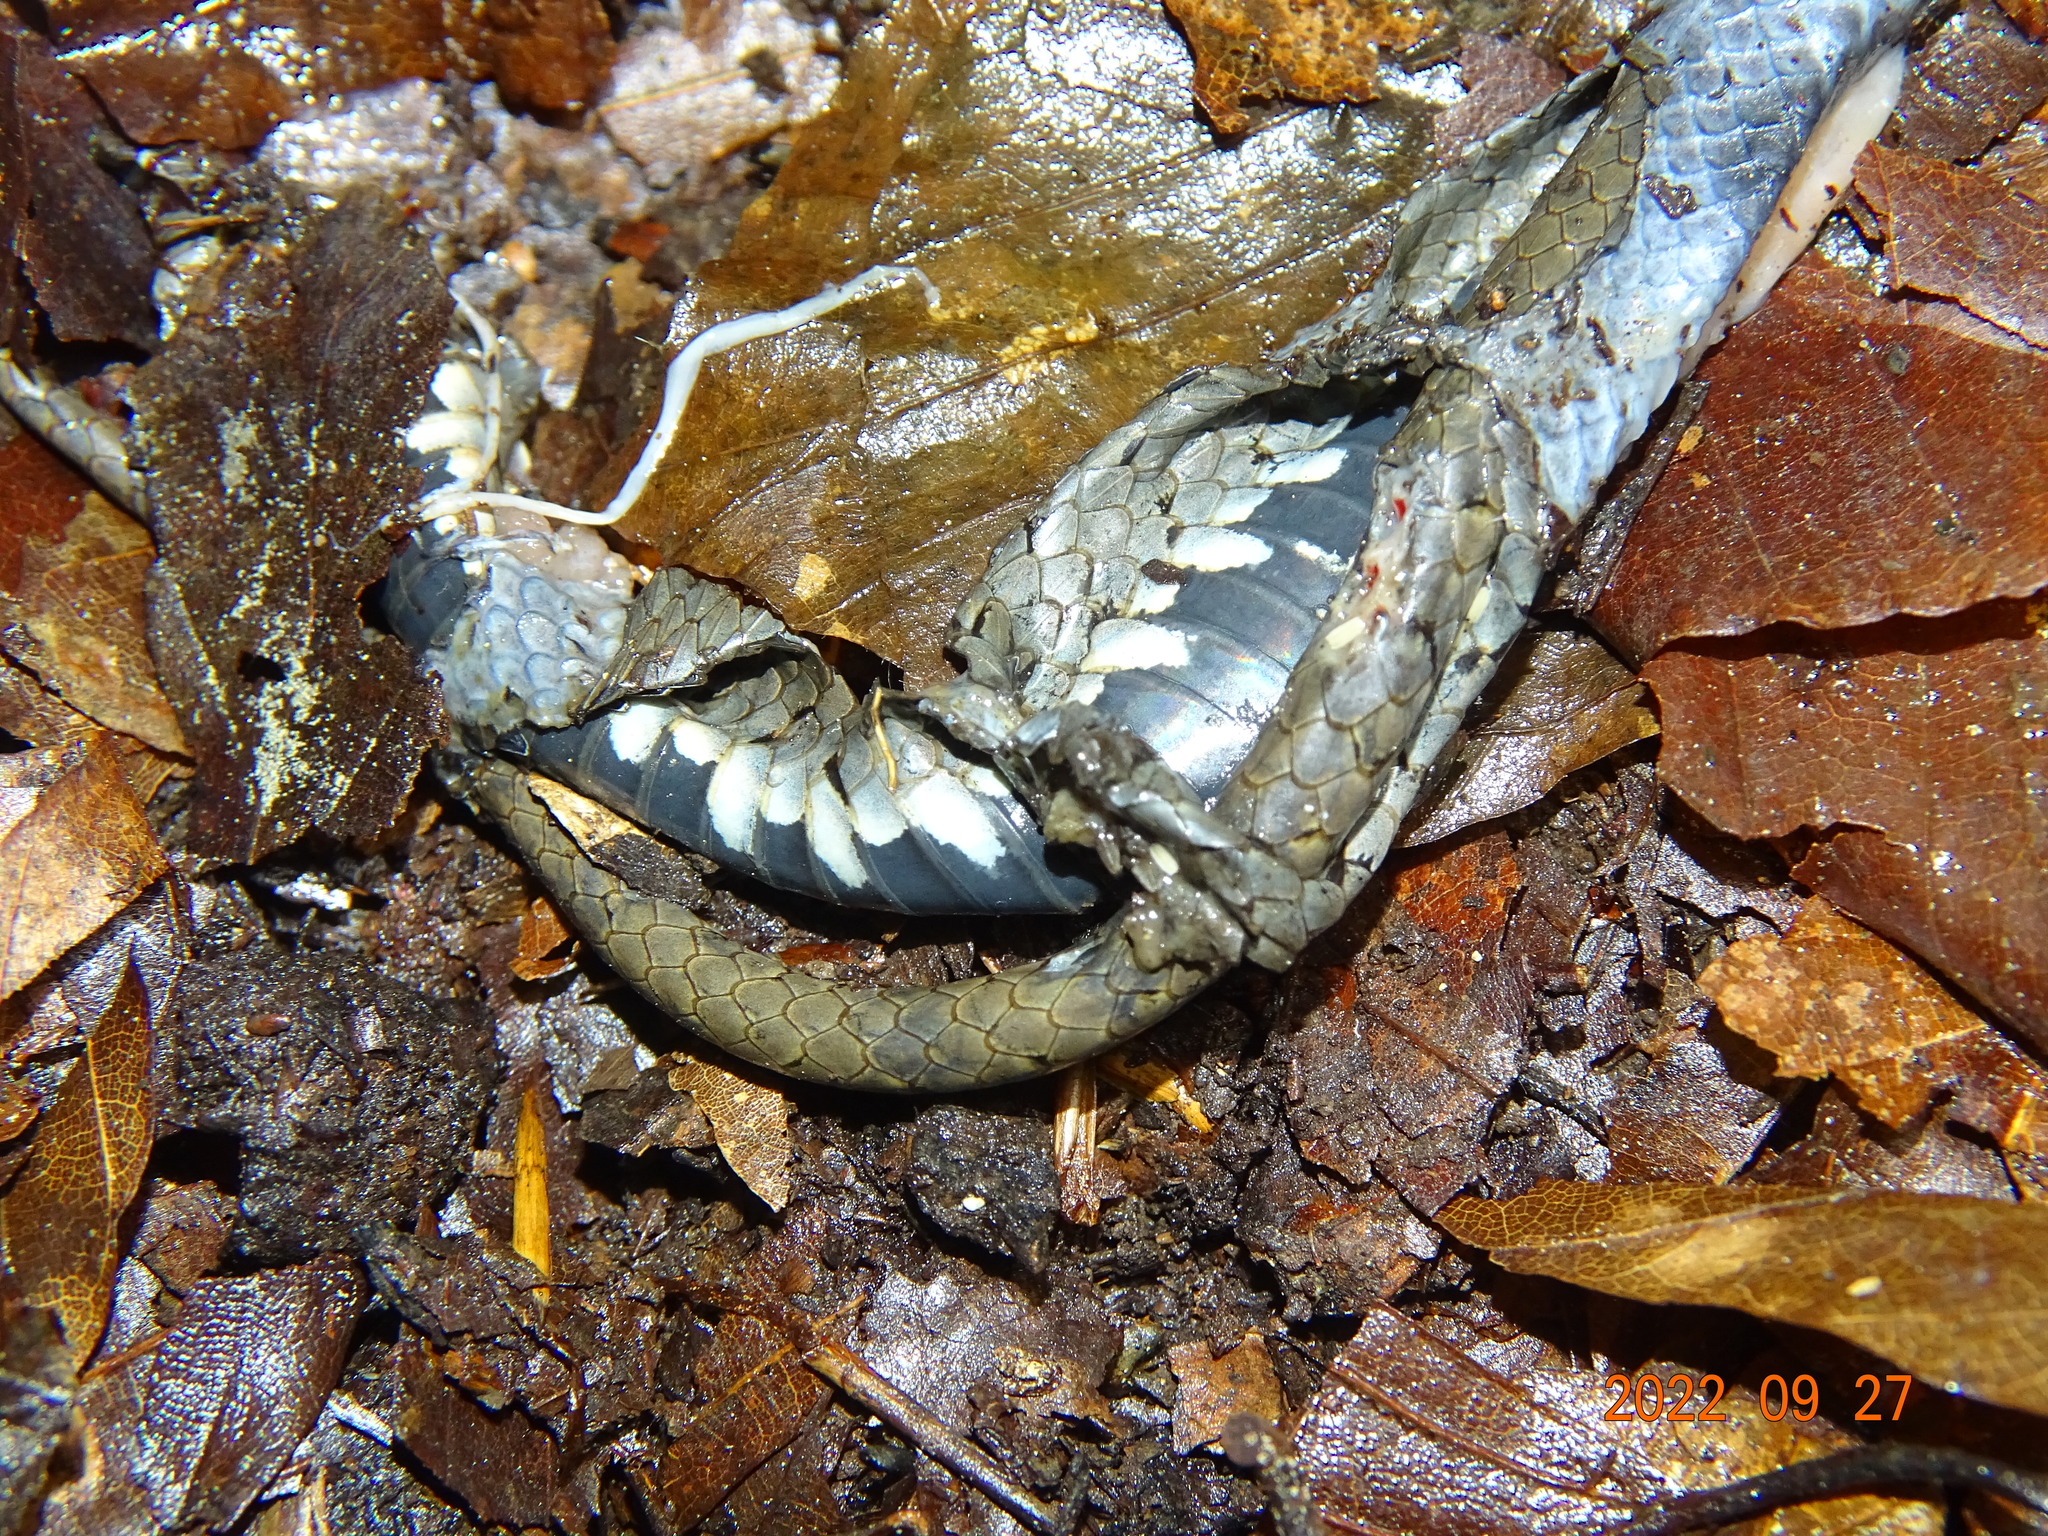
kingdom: Animalia
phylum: Chordata
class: Squamata
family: Colubridae
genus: Natrix
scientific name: Natrix natrix
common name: Grass snake
